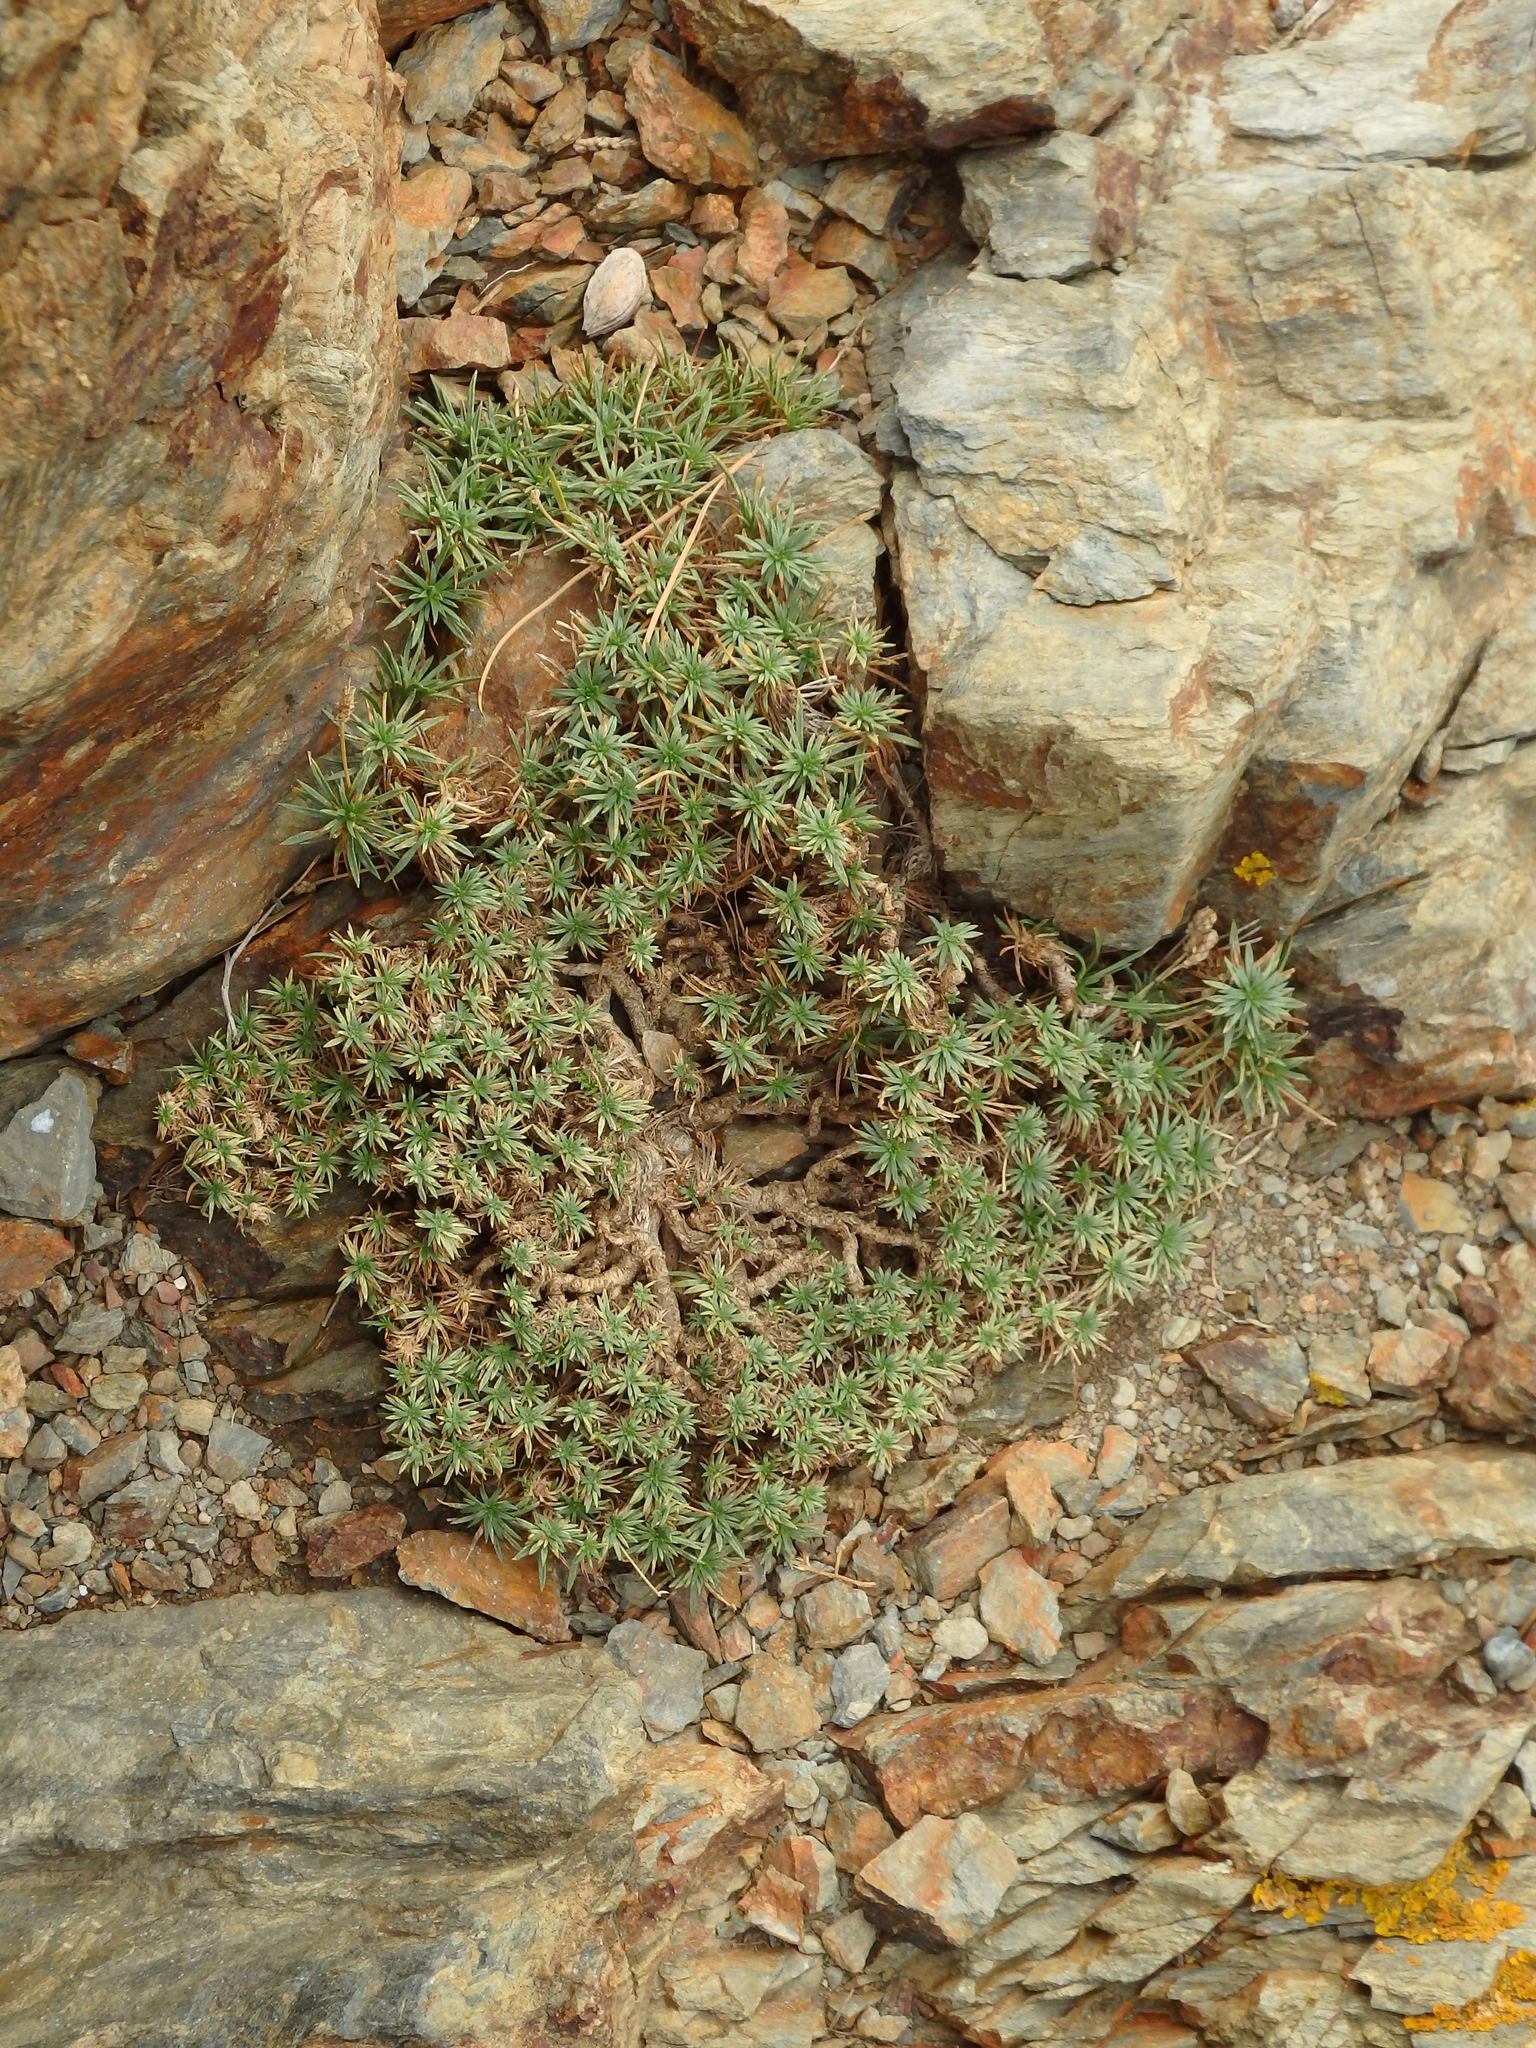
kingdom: Plantae
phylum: Tracheophyta
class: Magnoliopsida
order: Lamiales
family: Plantaginaceae
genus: Plantago
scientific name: Plantago subulata
